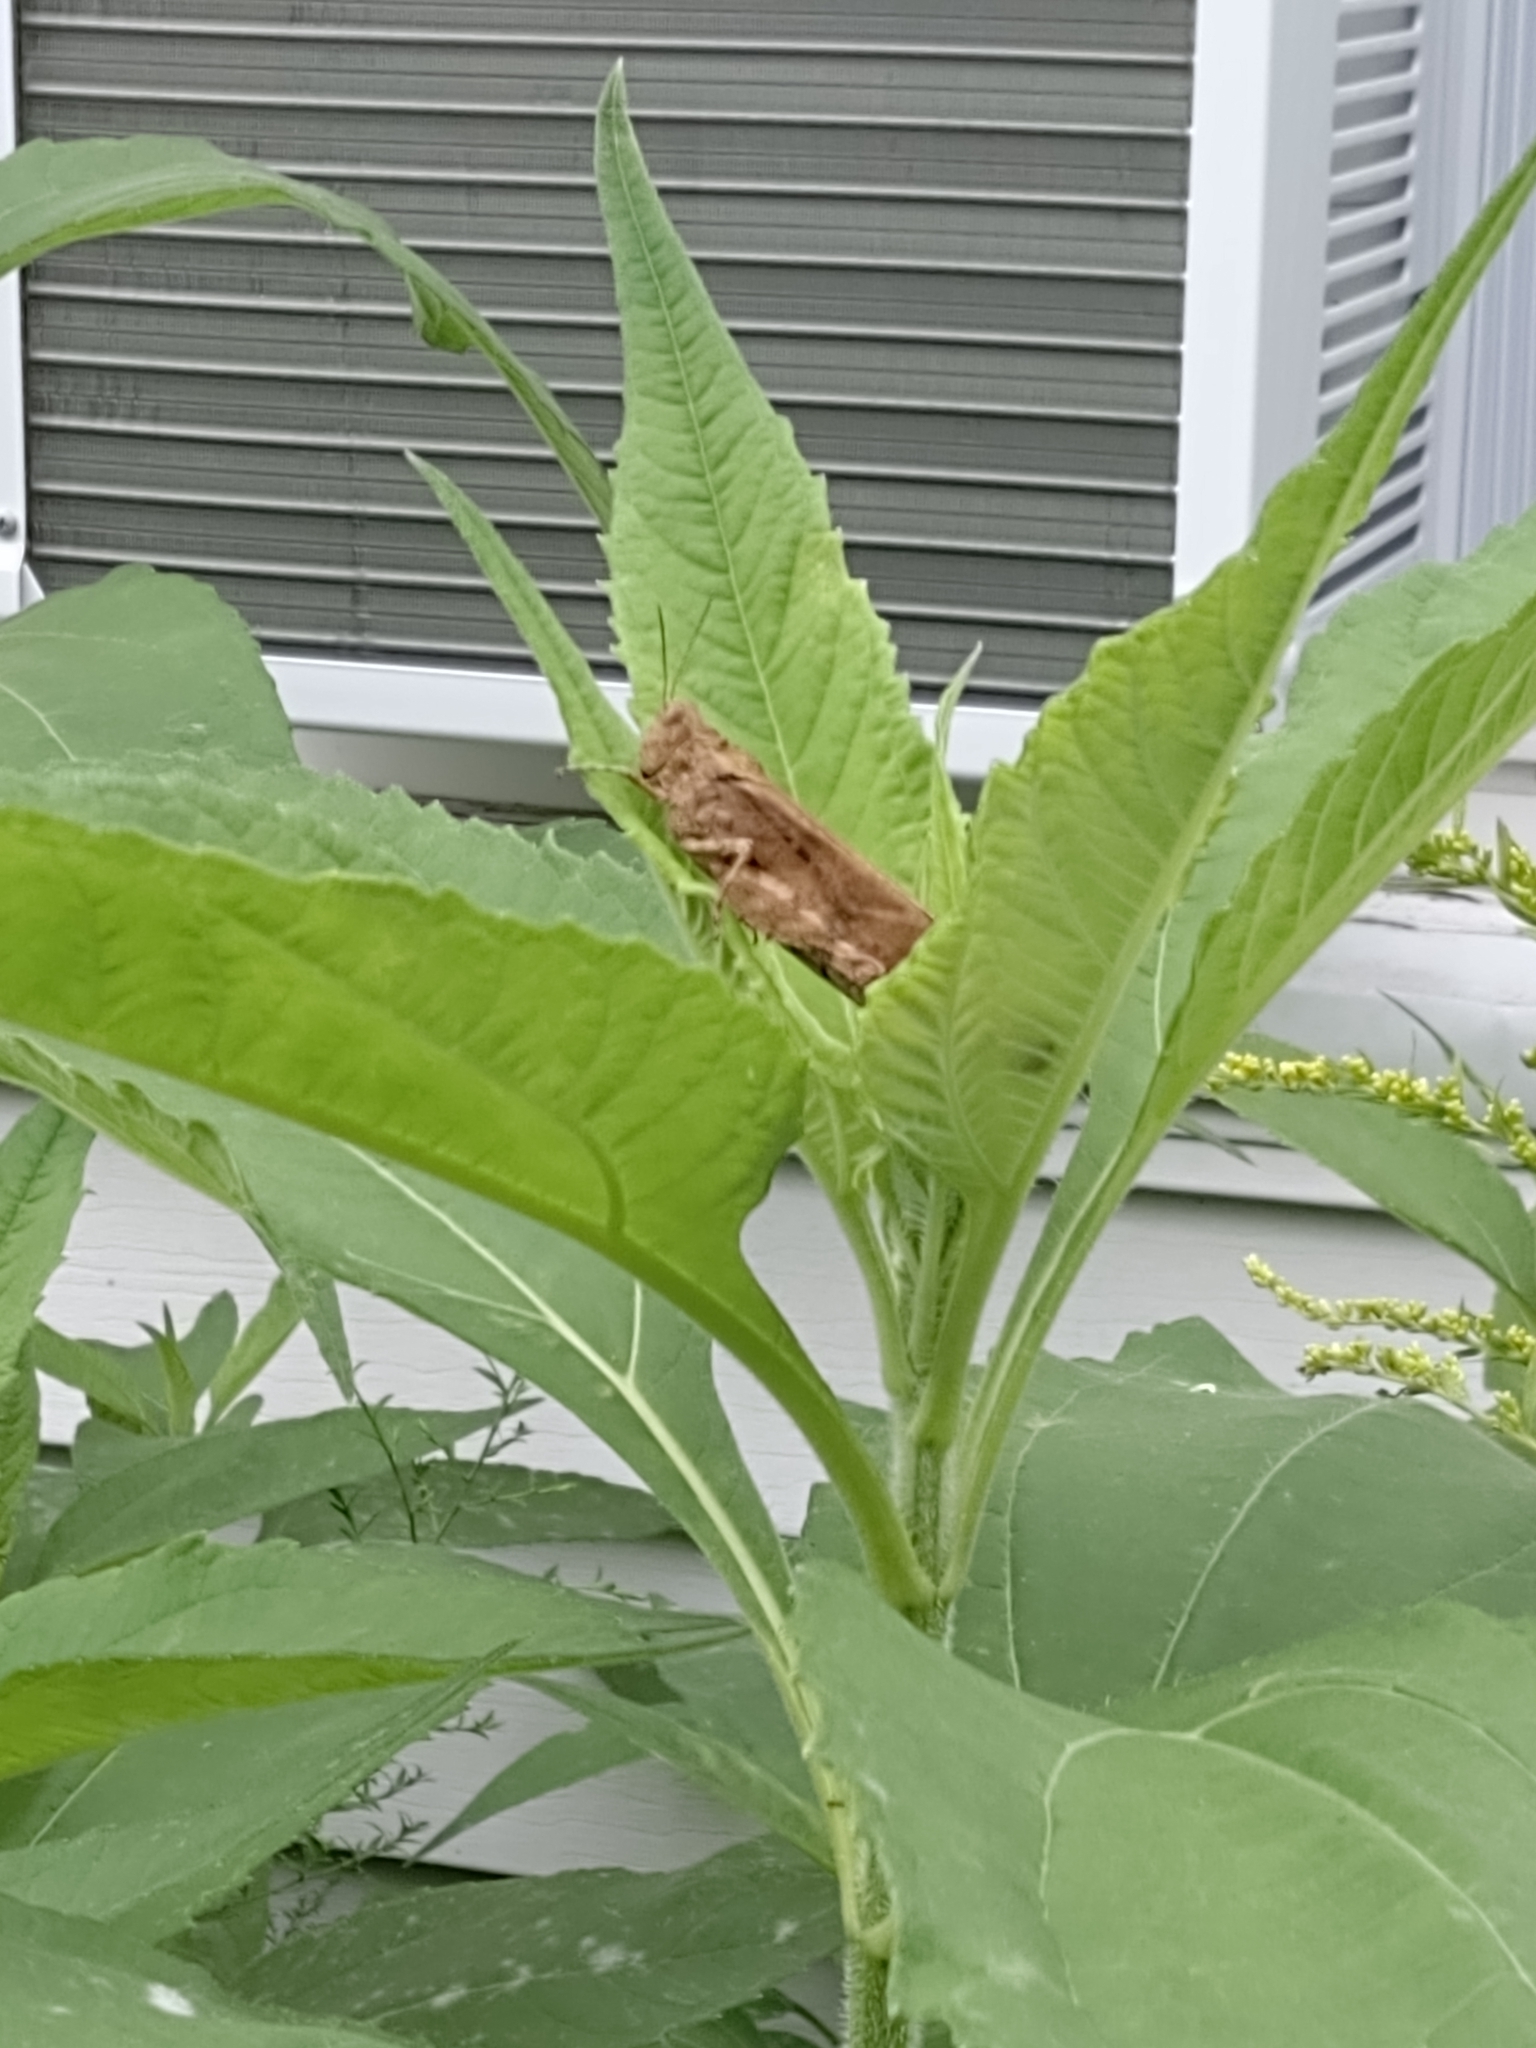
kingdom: Animalia
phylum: Arthropoda
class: Insecta
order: Orthoptera
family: Acrididae
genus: Dissosteira
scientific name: Dissosteira carolina
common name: Carolina grasshopper
